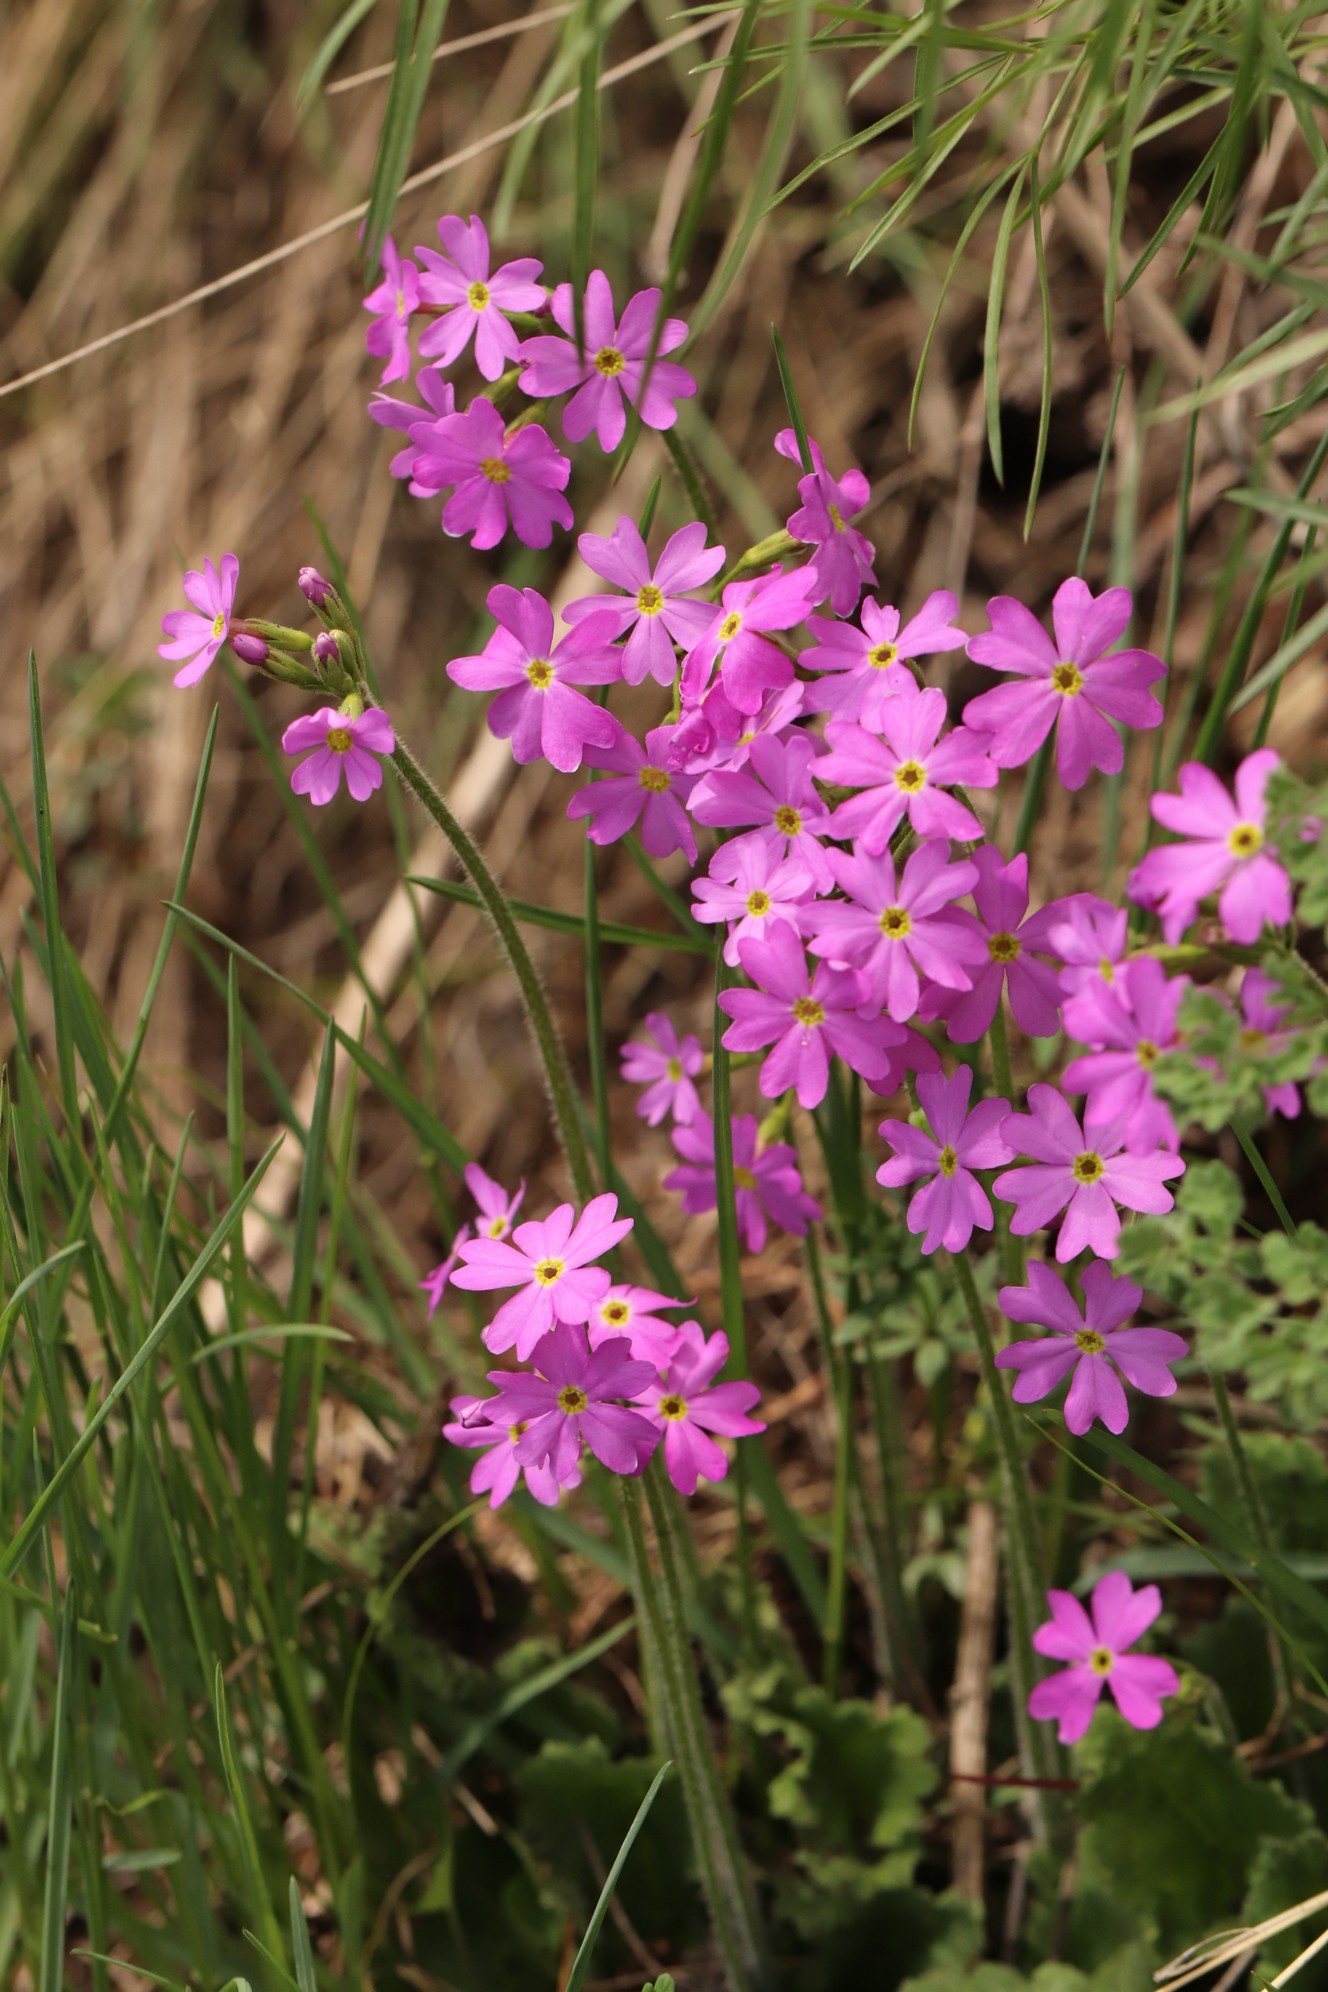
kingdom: Plantae
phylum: Tracheophyta
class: Magnoliopsida
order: Ericales
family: Primulaceae
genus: Primula
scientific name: Primula cortusoides
